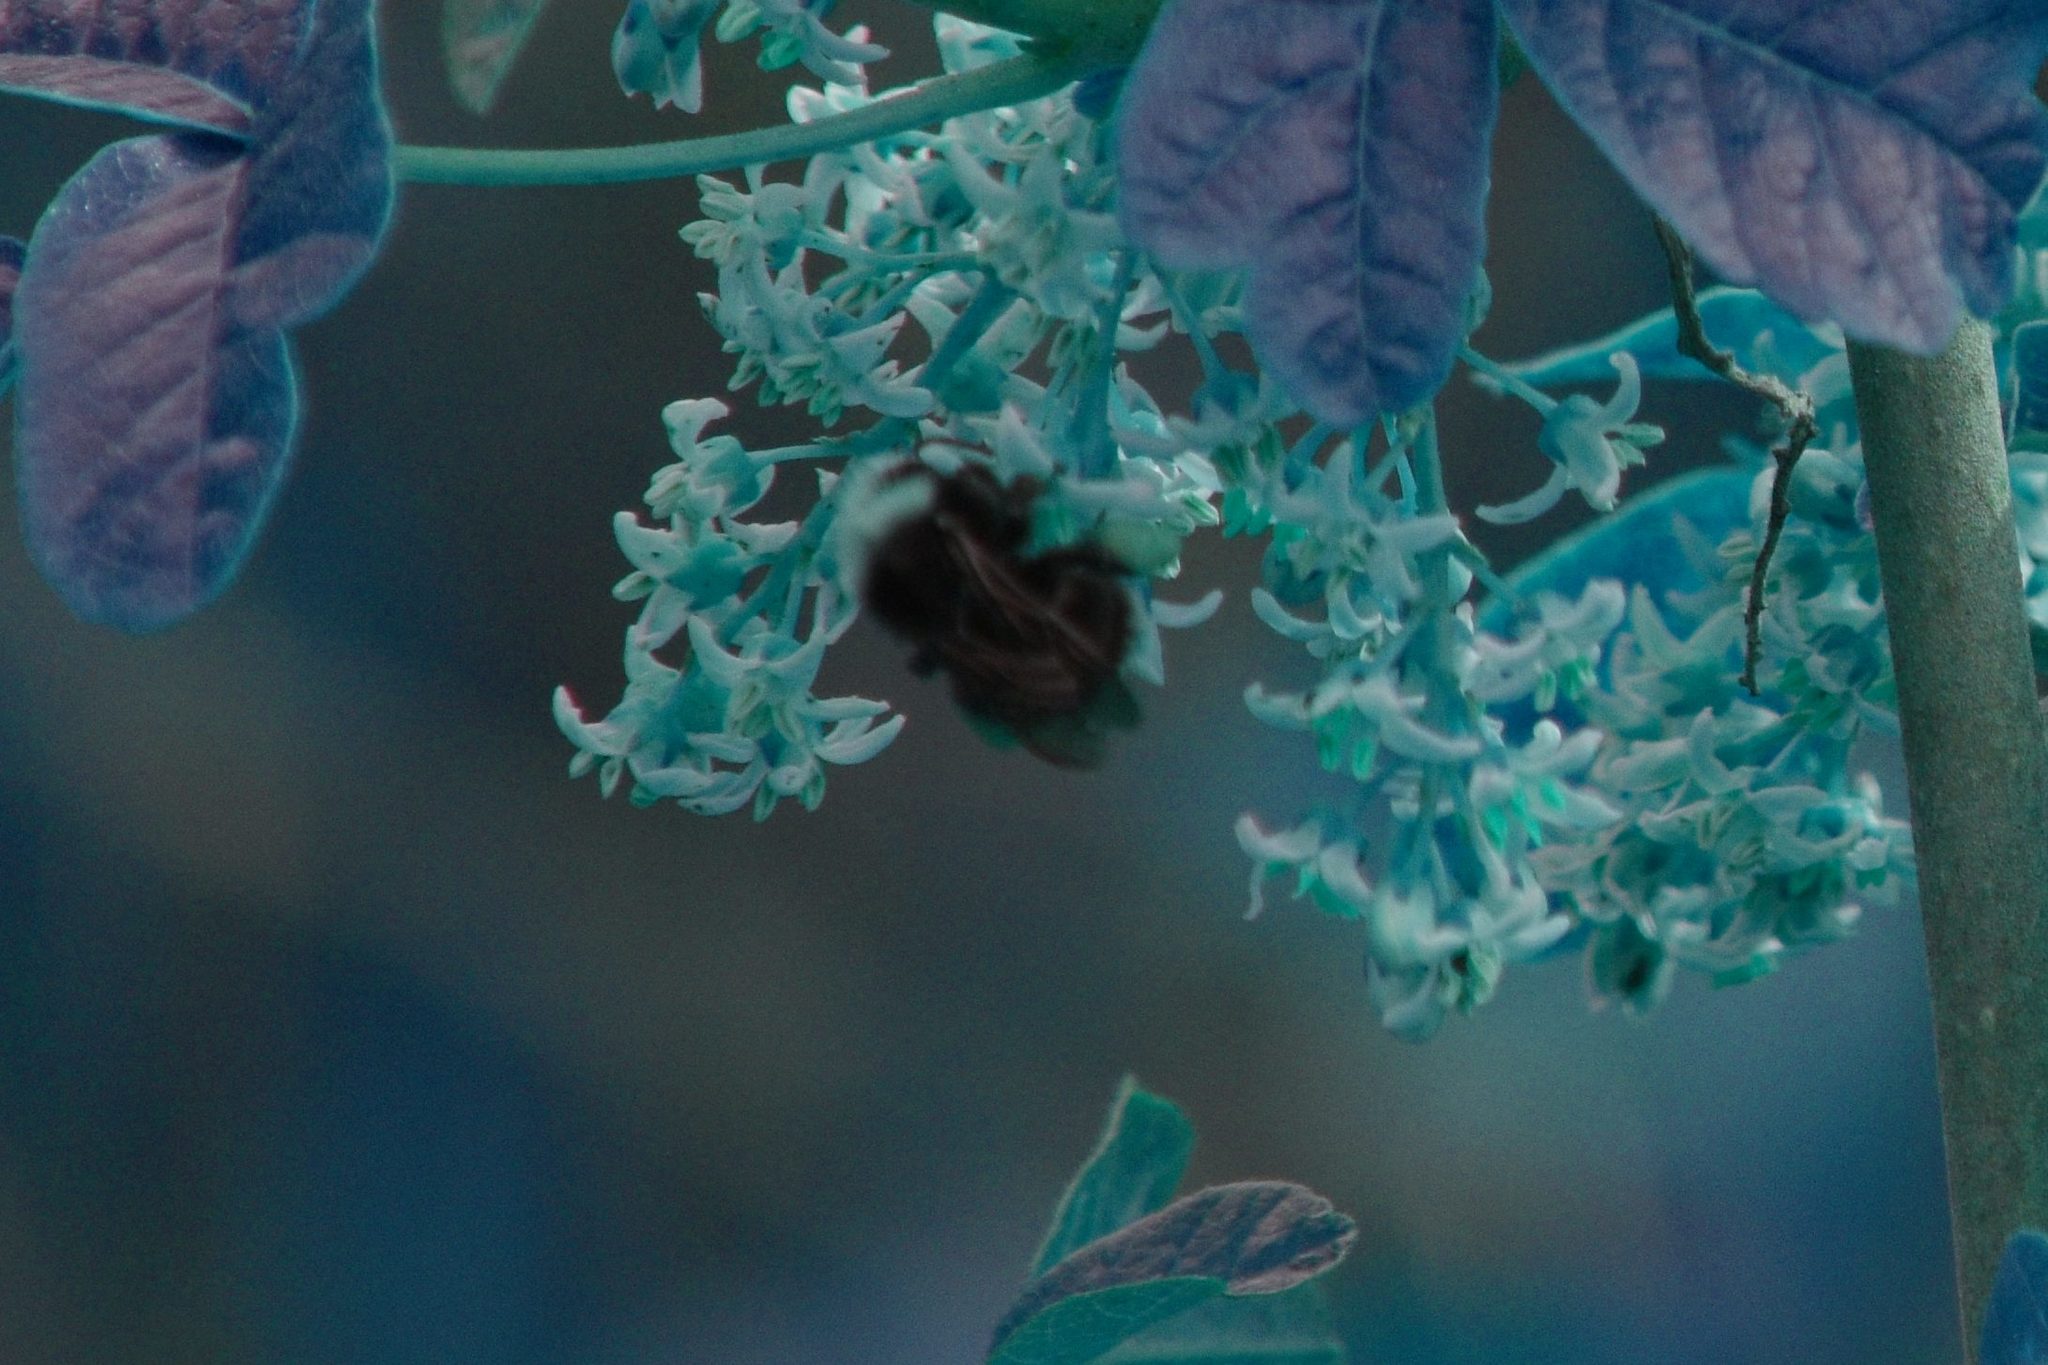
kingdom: Animalia
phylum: Arthropoda
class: Insecta
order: Hymenoptera
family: Apidae
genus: Pyrobombus
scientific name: Pyrobombus
